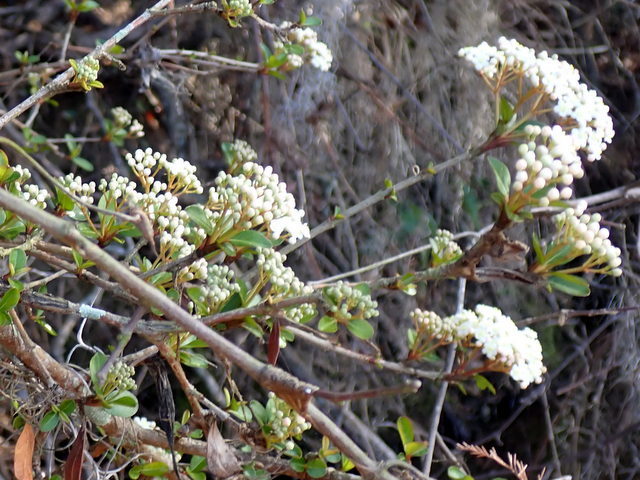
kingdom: Plantae
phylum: Tracheophyta
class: Magnoliopsida
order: Dipsacales
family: Viburnaceae
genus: Viburnum
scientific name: Viburnum obovatum
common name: Walter's viburnum
